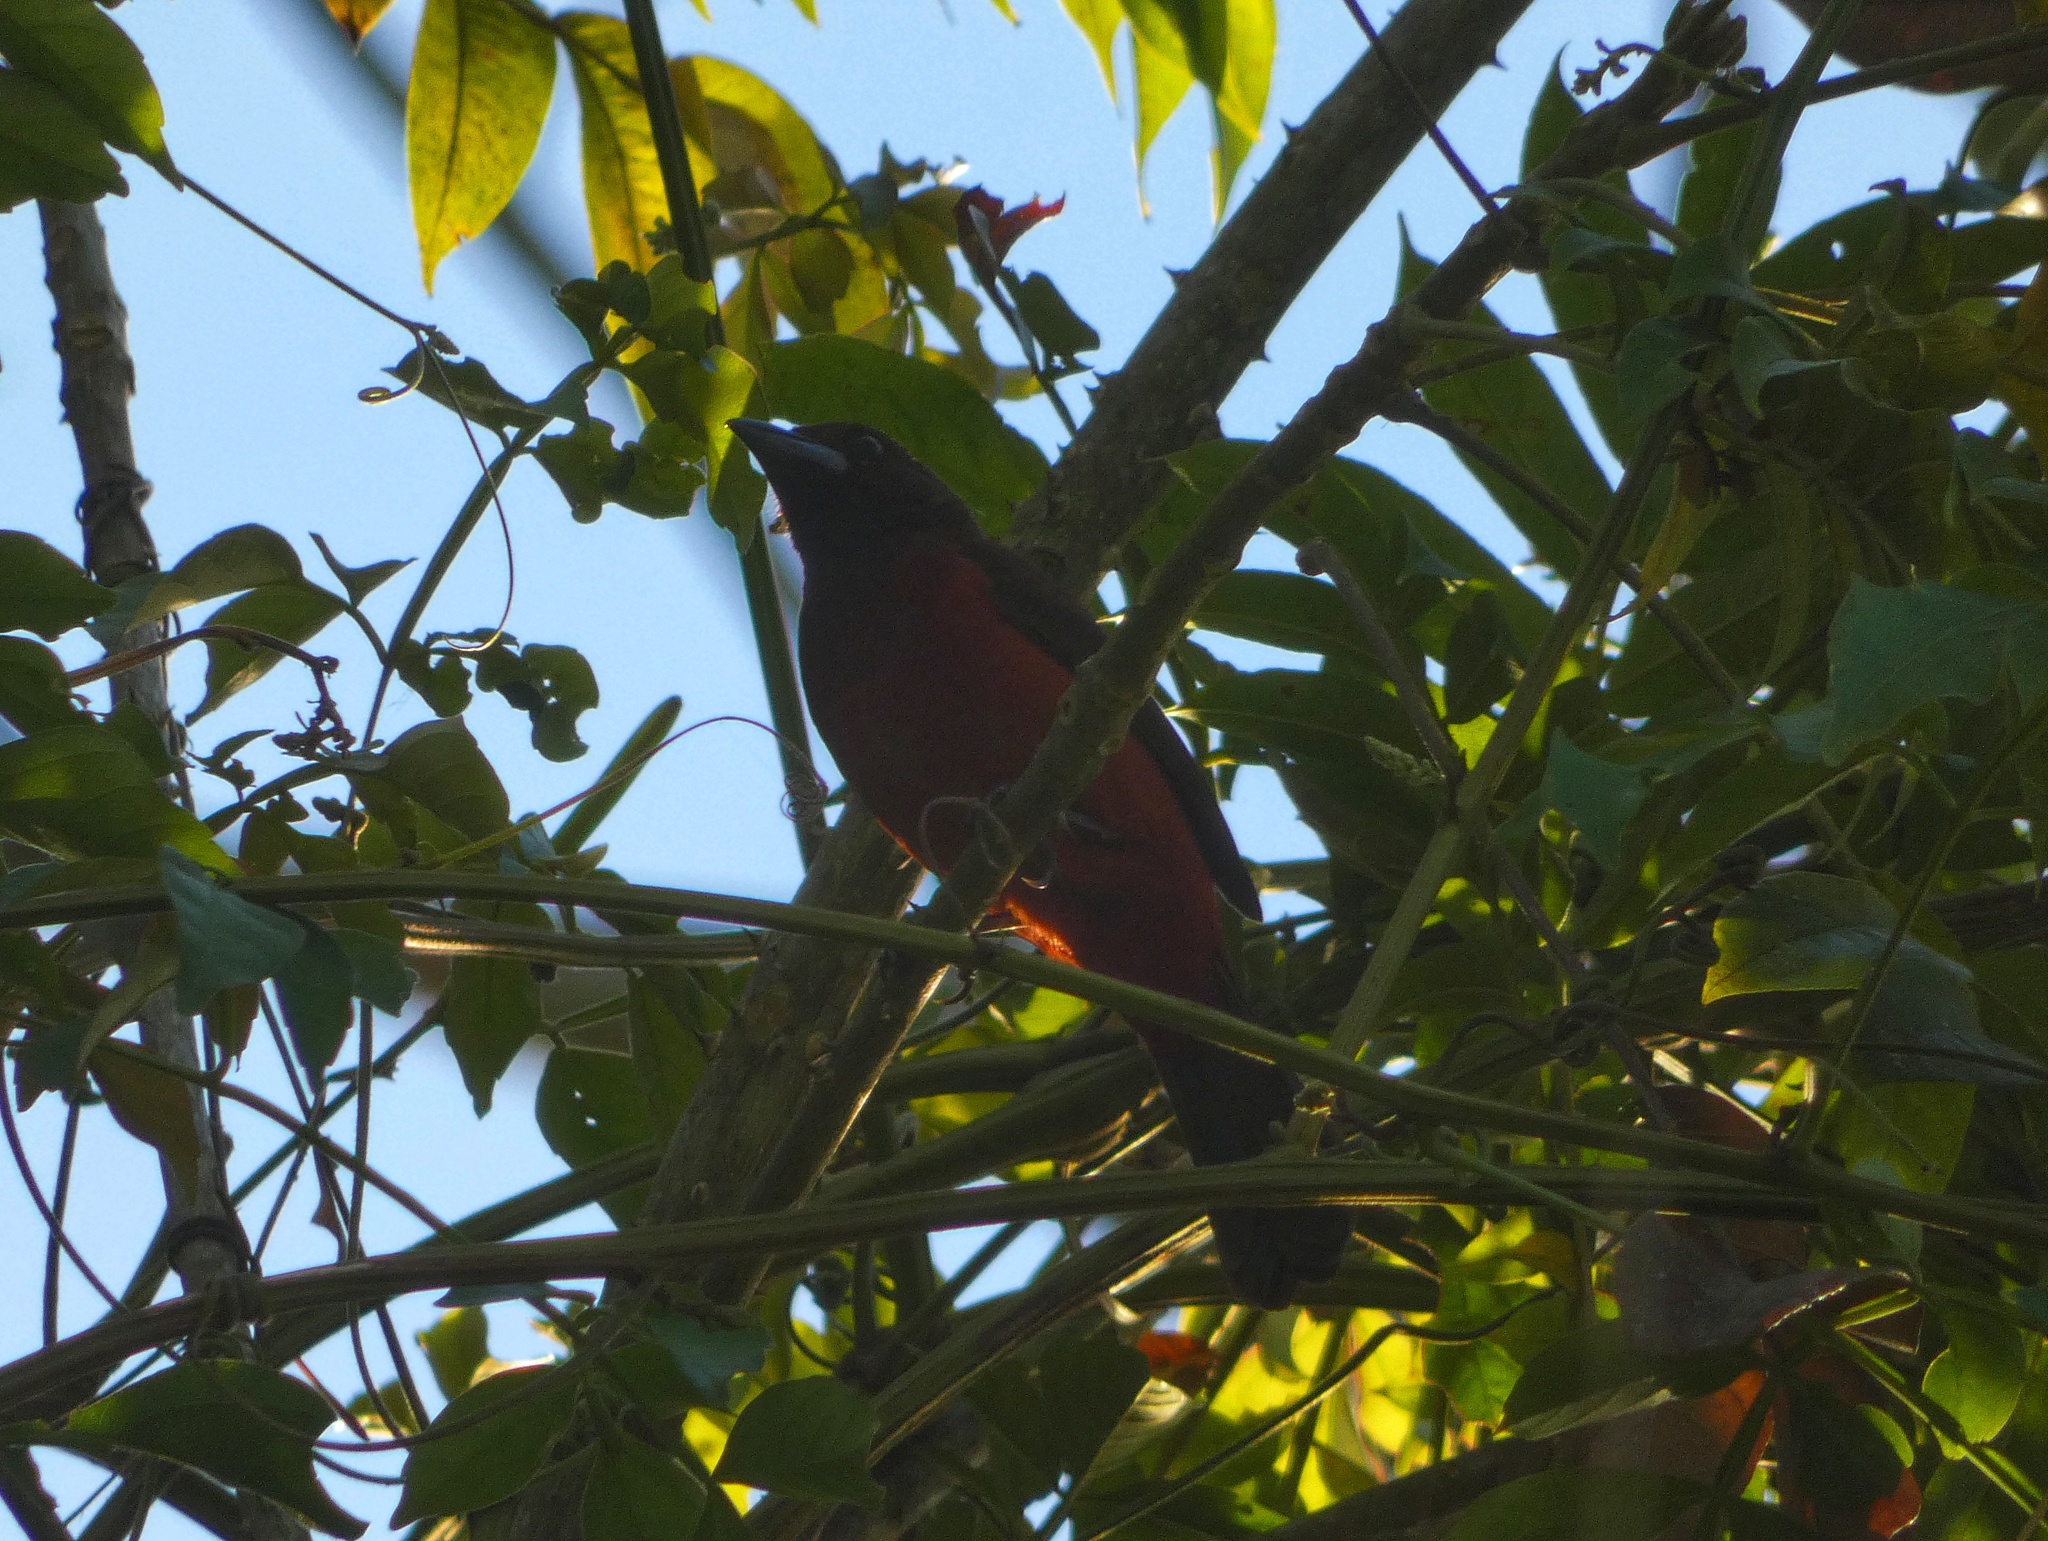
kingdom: Animalia
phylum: Chordata
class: Aves
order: Passeriformes
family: Thraupidae
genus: Ramphocelus
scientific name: Ramphocelus dimidiatus
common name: Crimson-backed tanager
